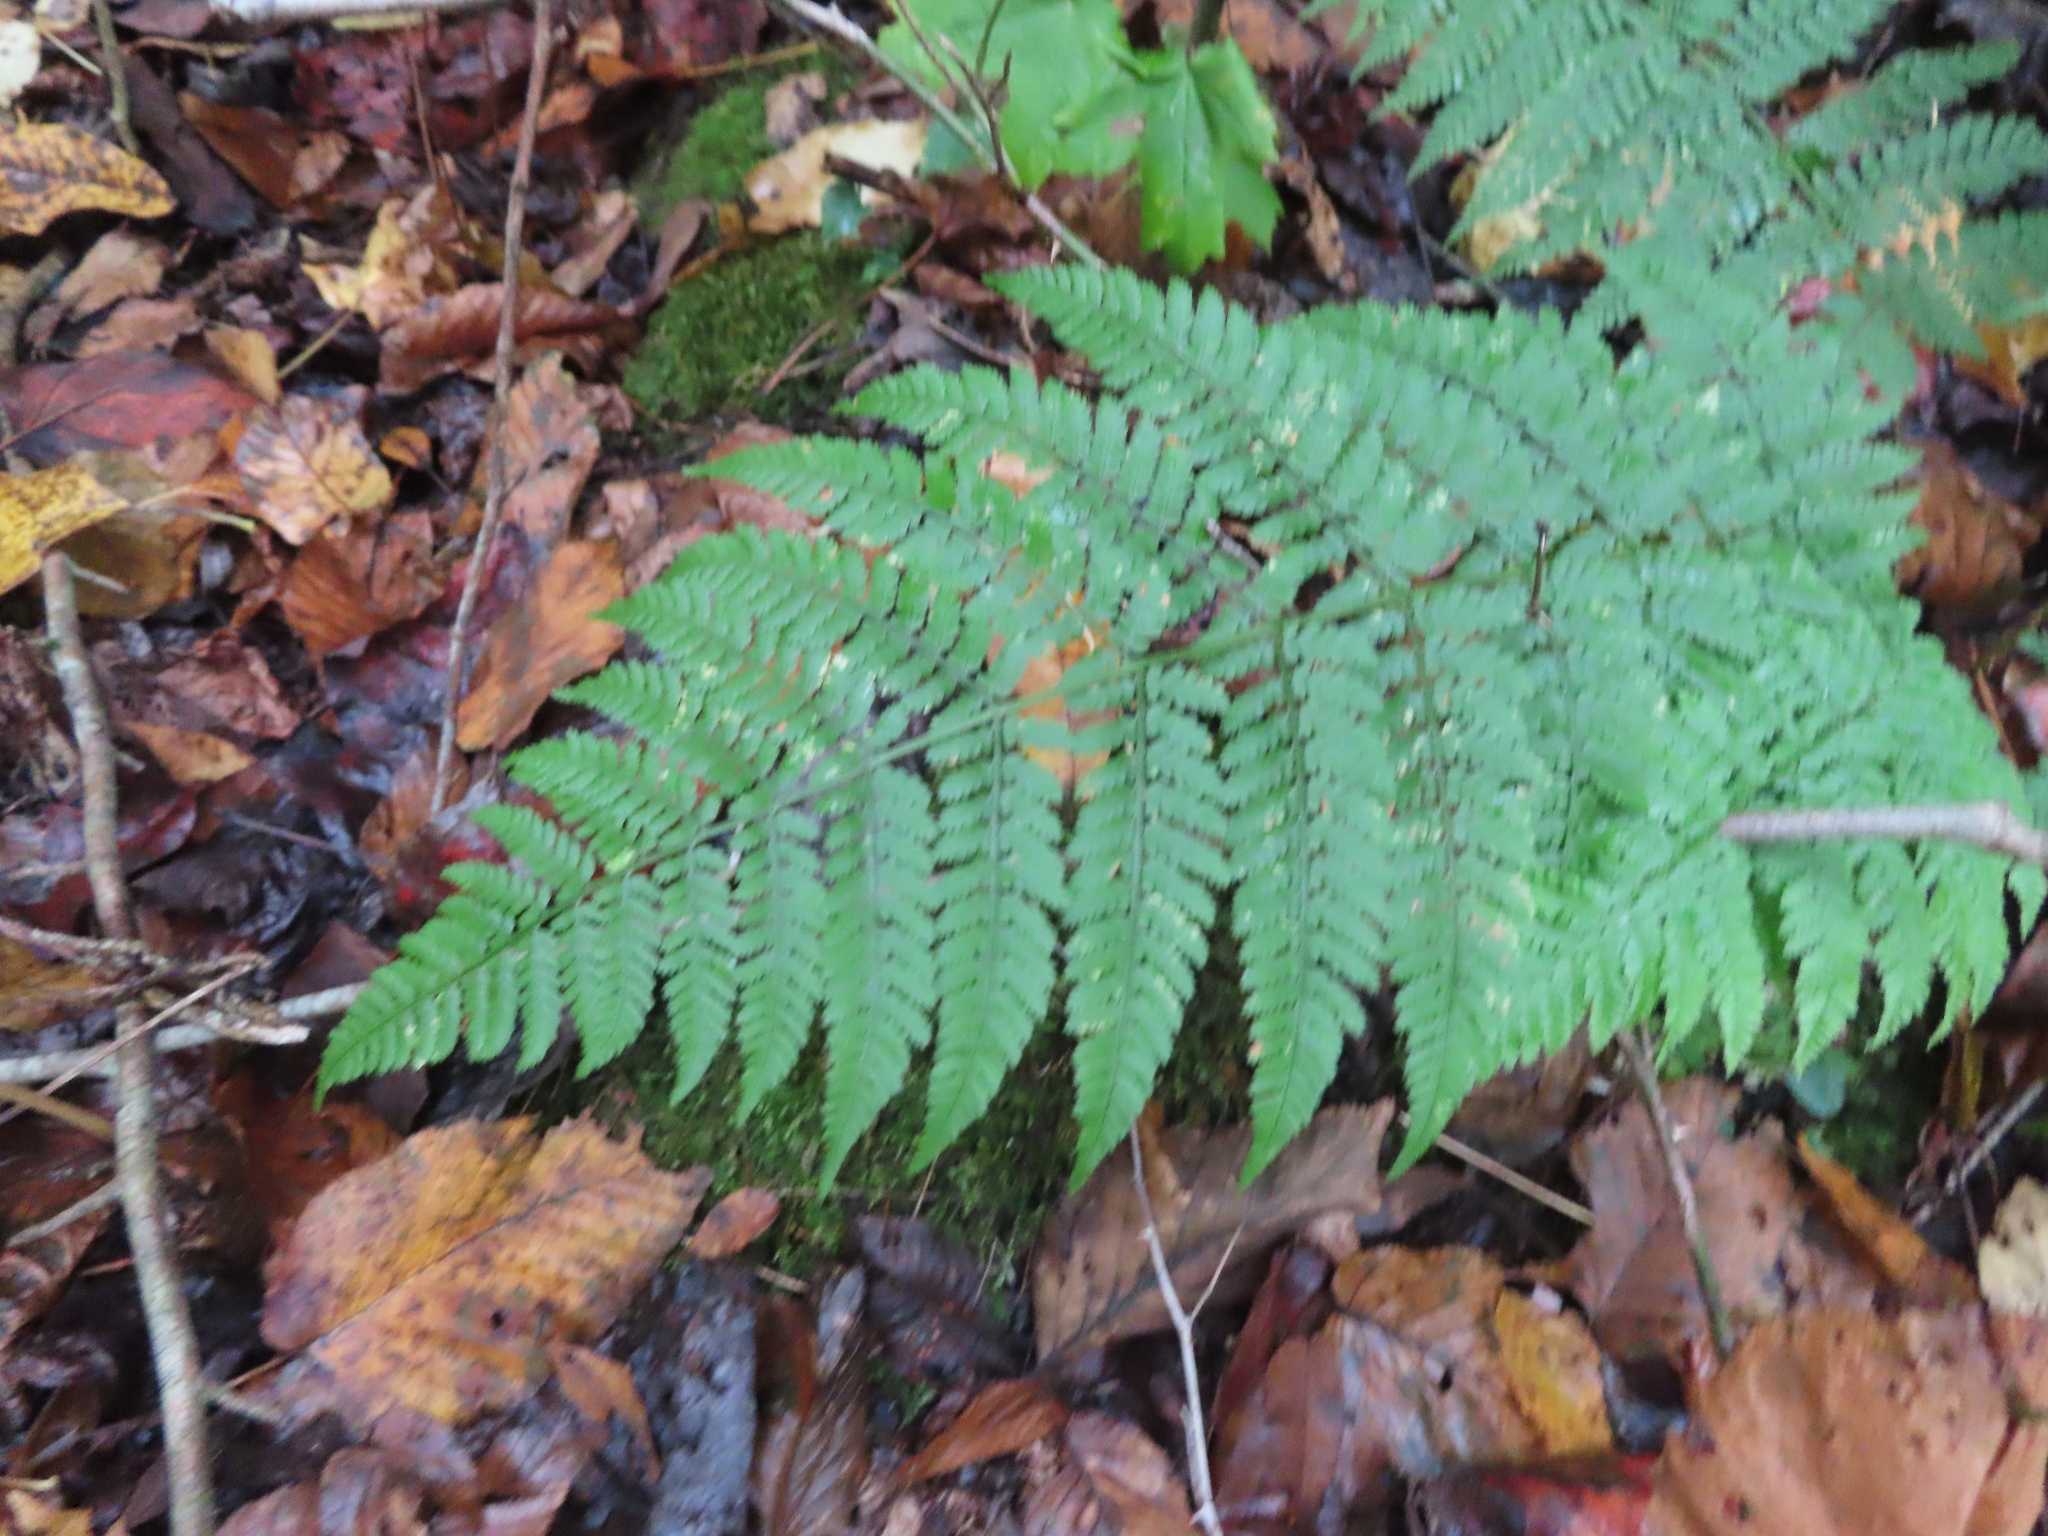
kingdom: Plantae
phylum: Tracheophyta
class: Polypodiopsida
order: Polypodiales
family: Dryopteridaceae
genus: Dryopteris
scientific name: Dryopteris intermedia
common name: Evergreen wood fern
